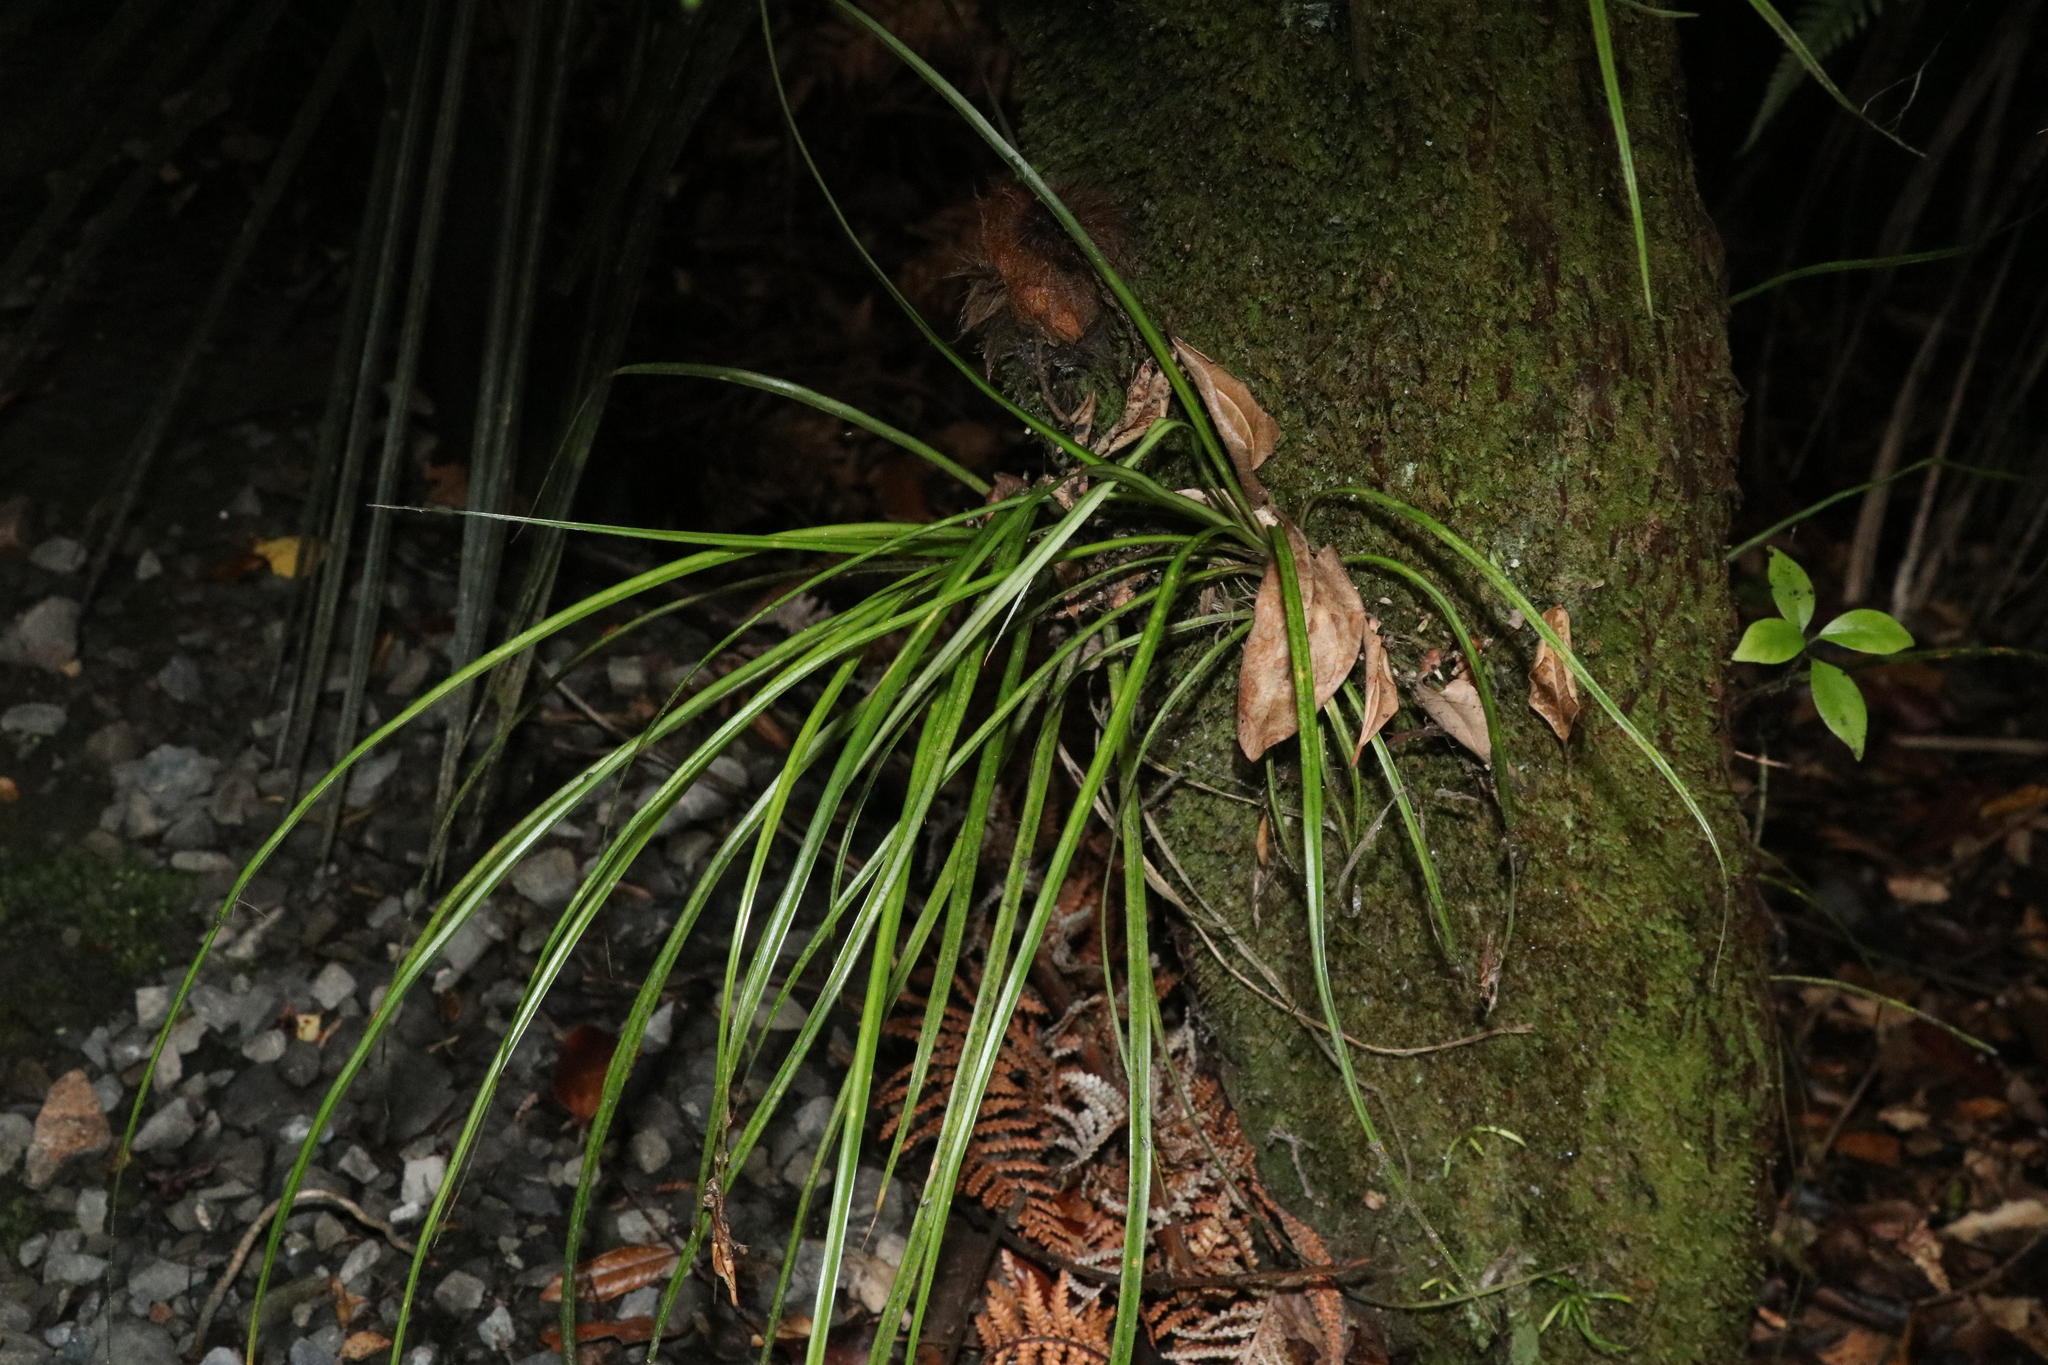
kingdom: Plantae
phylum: Tracheophyta
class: Liliopsida
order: Asparagales
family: Asteliaceae
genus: Astelia
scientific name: Astelia solandri
